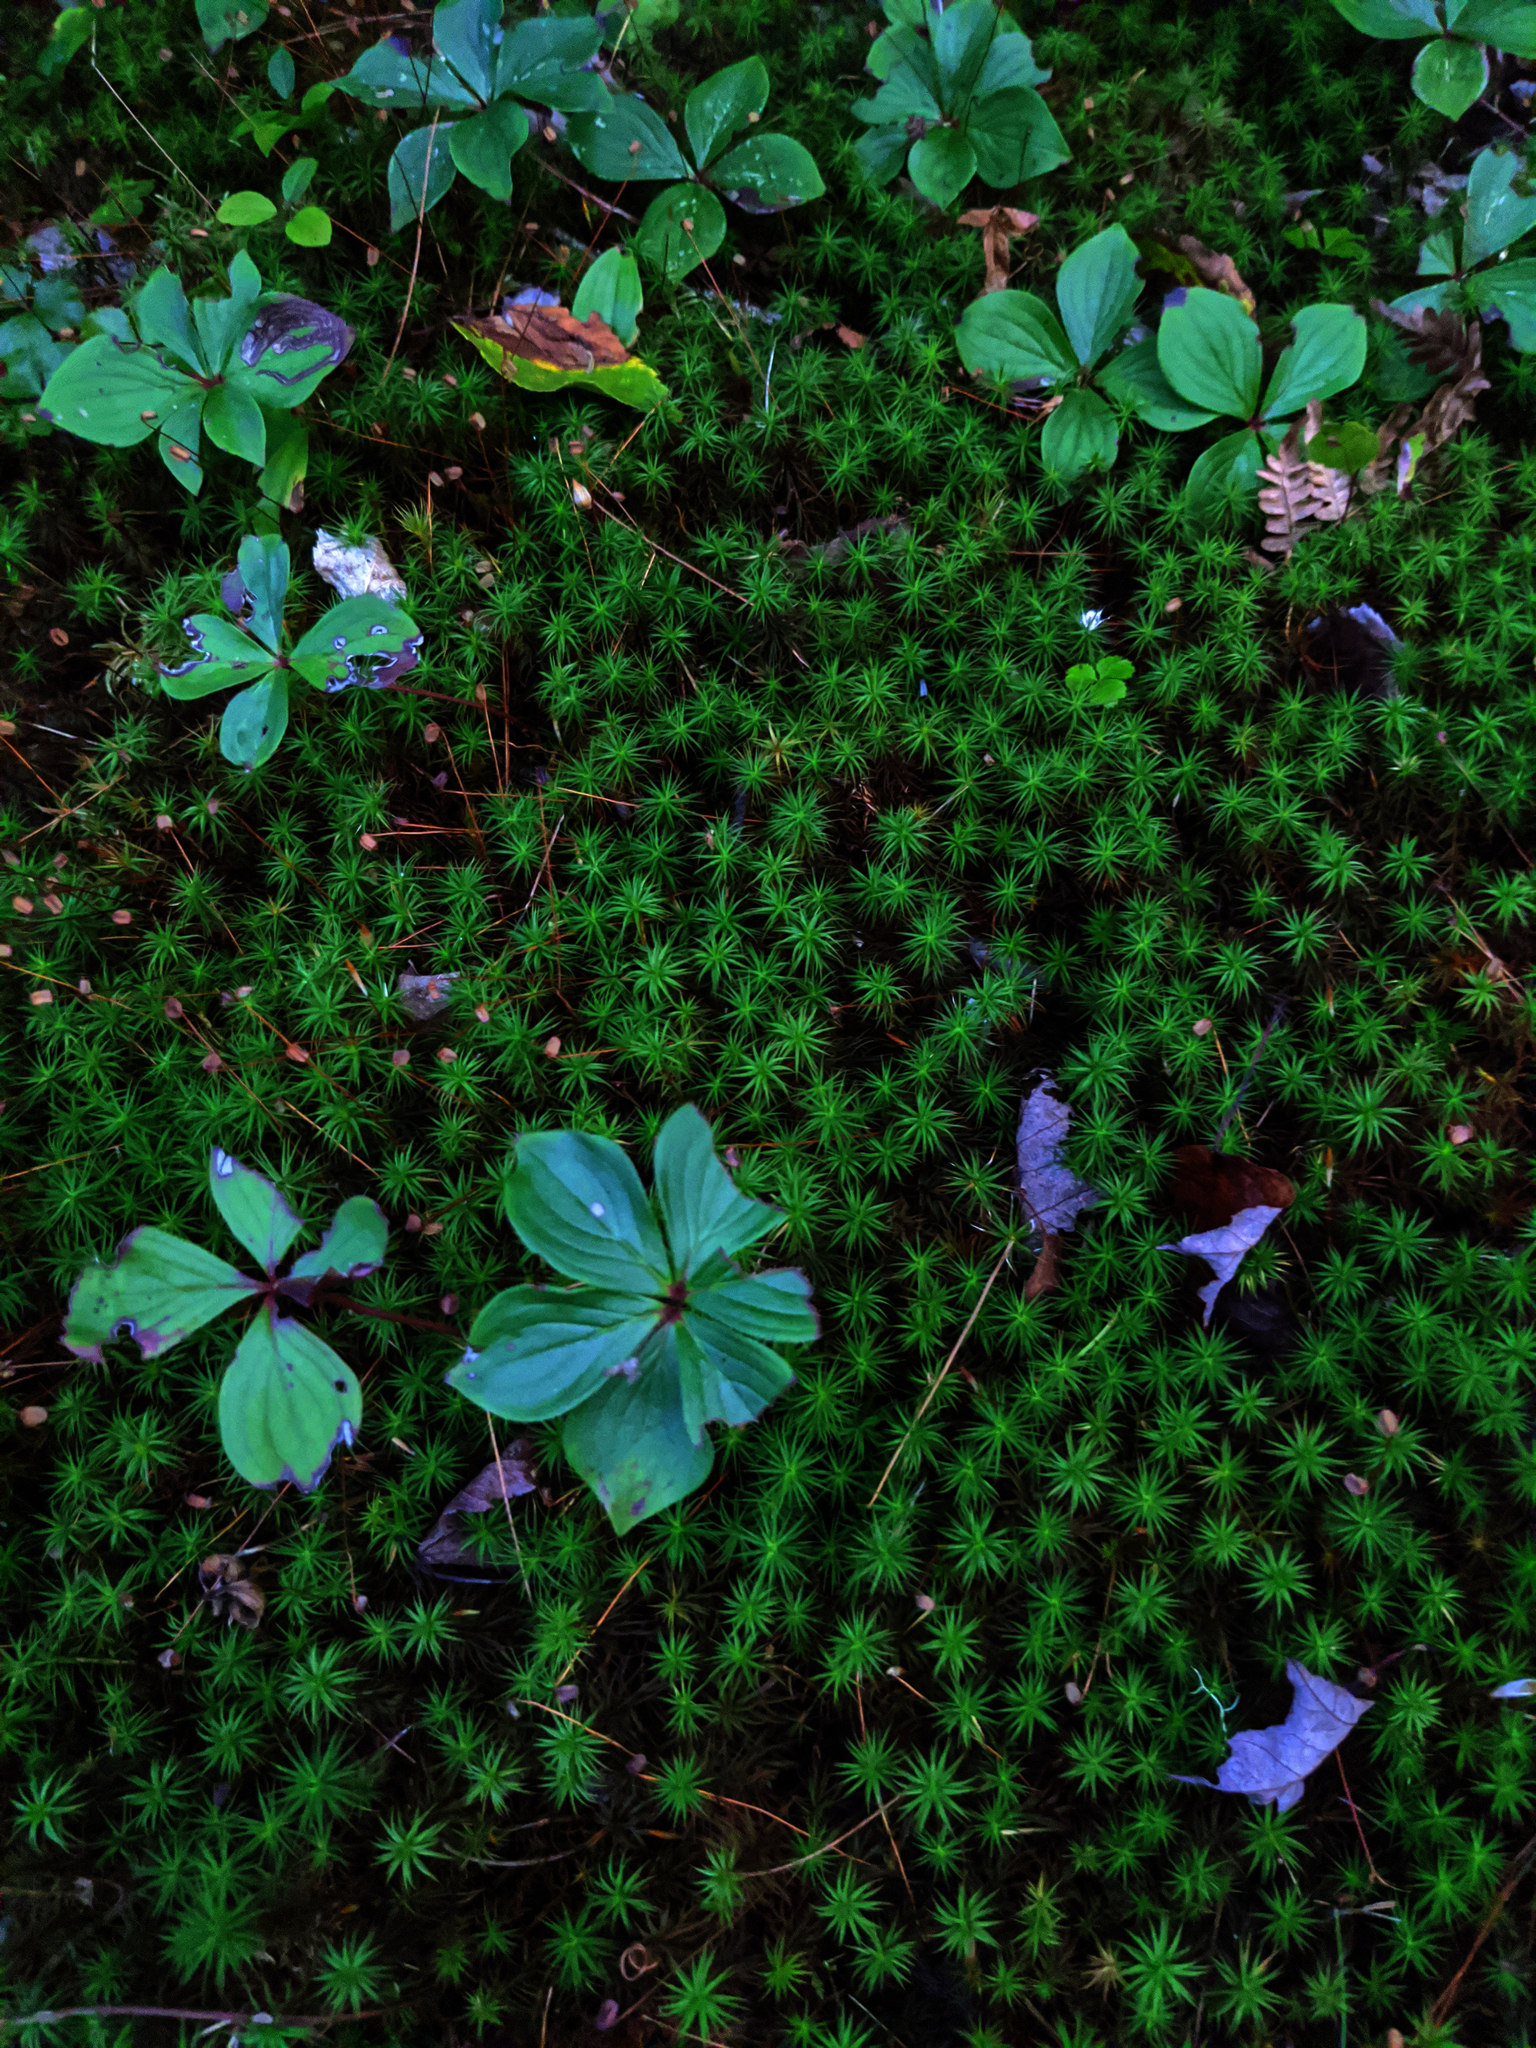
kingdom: Plantae
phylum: Tracheophyta
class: Magnoliopsida
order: Cornales
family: Cornaceae
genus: Cornus
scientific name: Cornus canadensis
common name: Creeping dogwood
